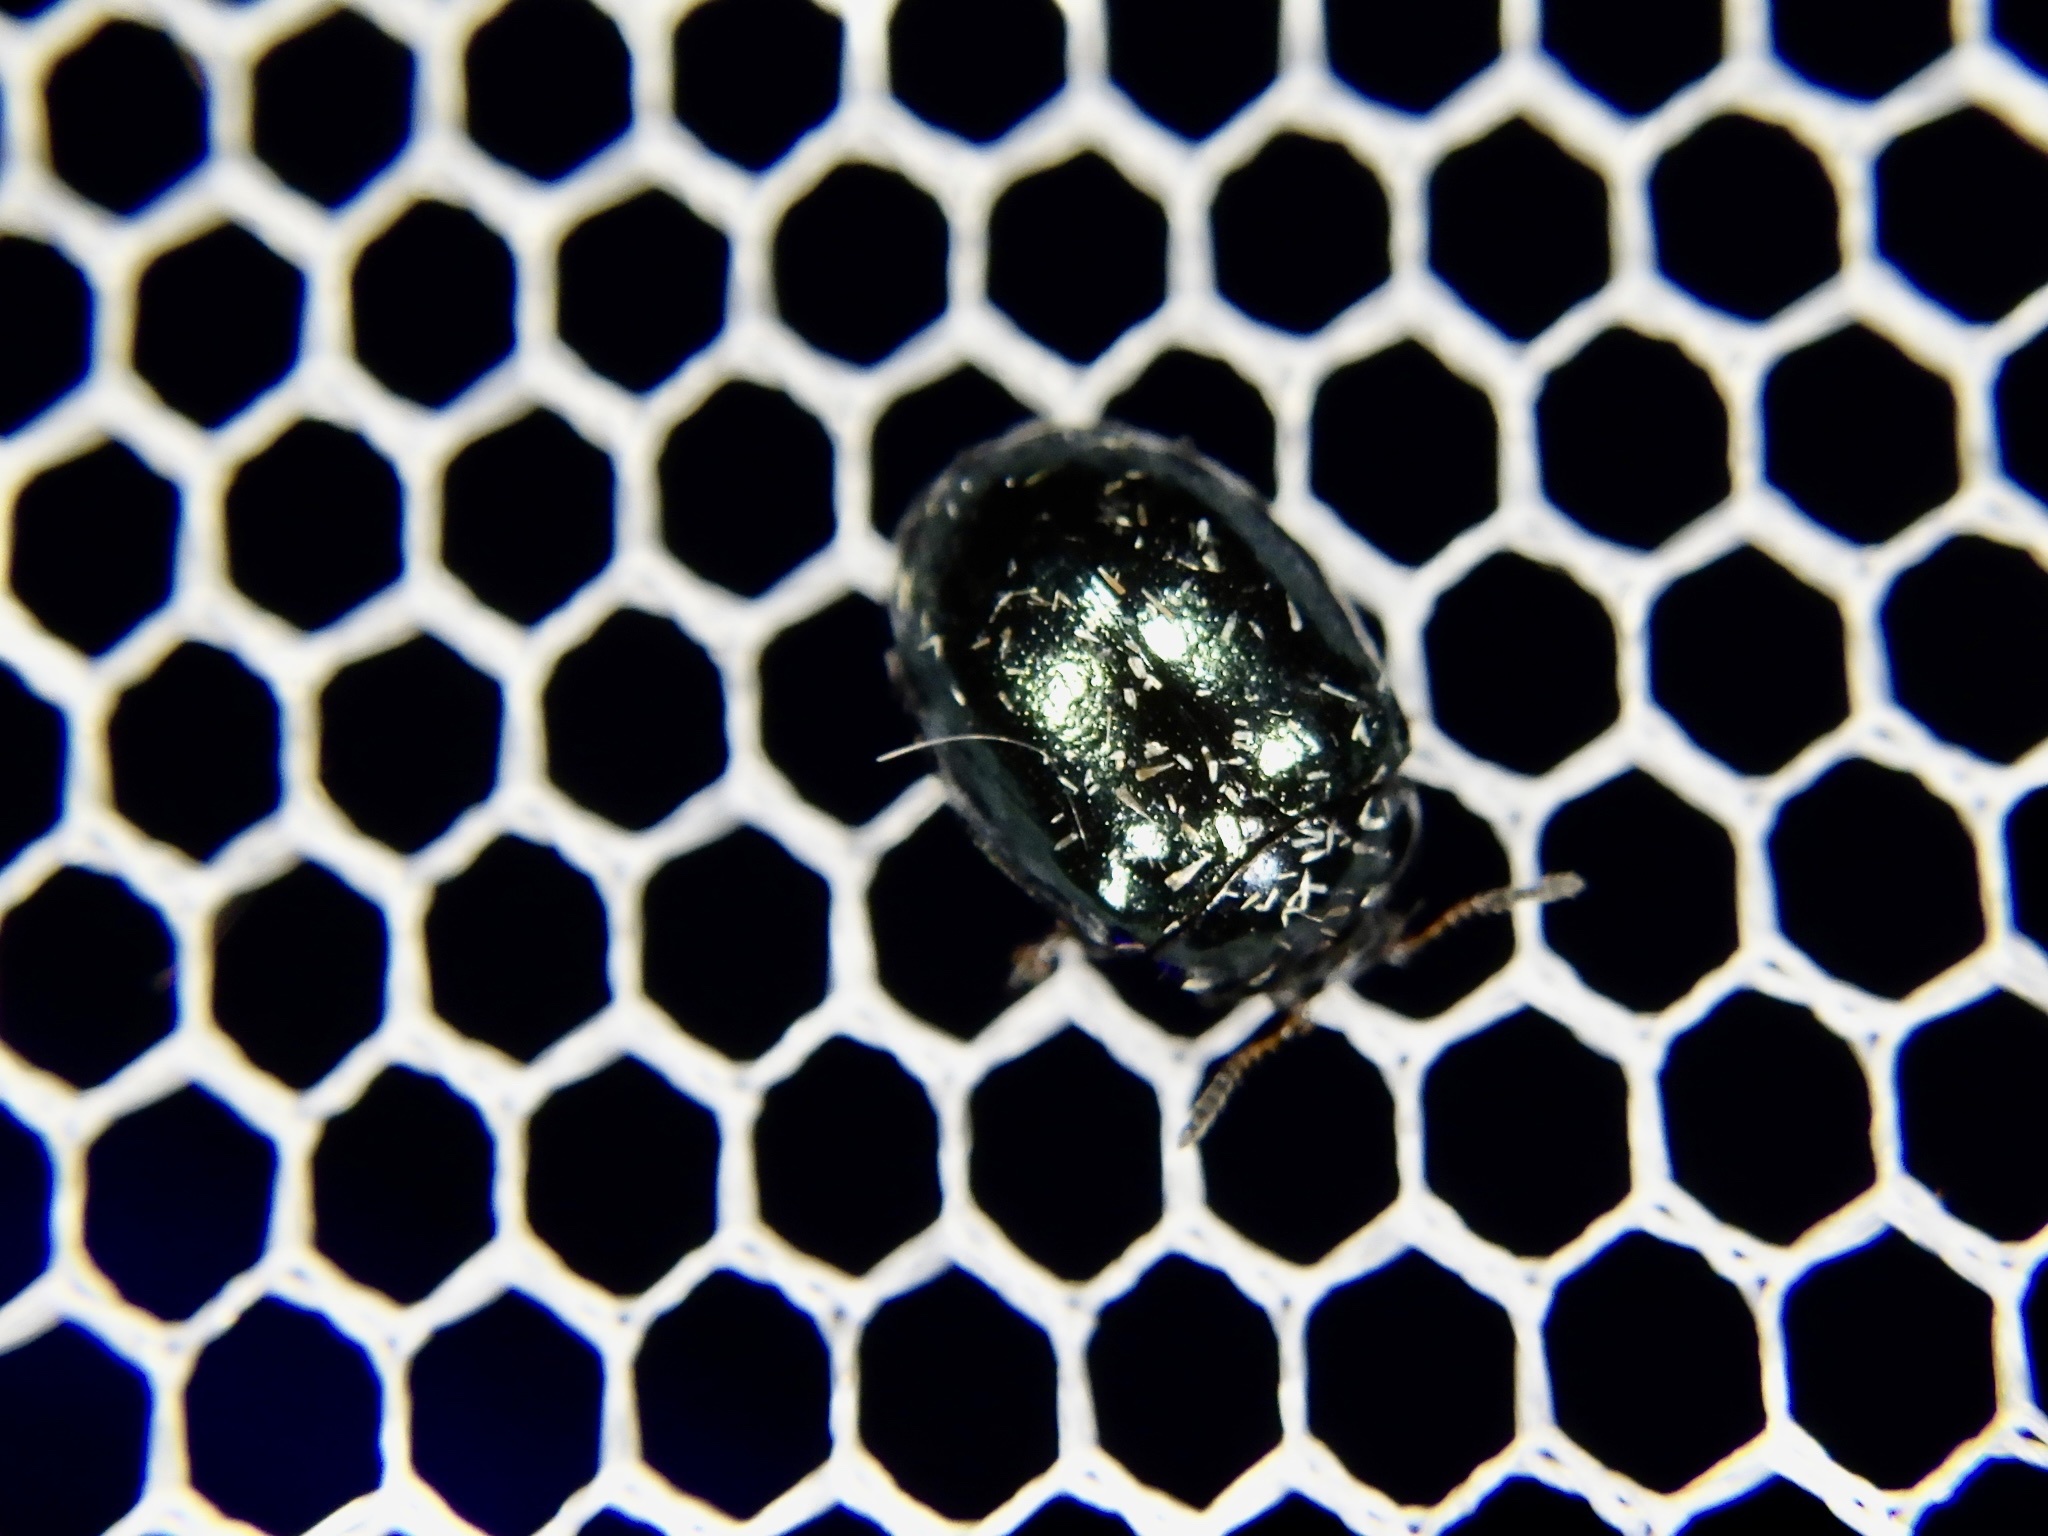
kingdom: Animalia
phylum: Arthropoda
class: Insecta
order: Coleoptera
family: Chrysomelidae
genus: Plagiodera
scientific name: Plagiodera versicolora
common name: Imported willow leaf beetle
